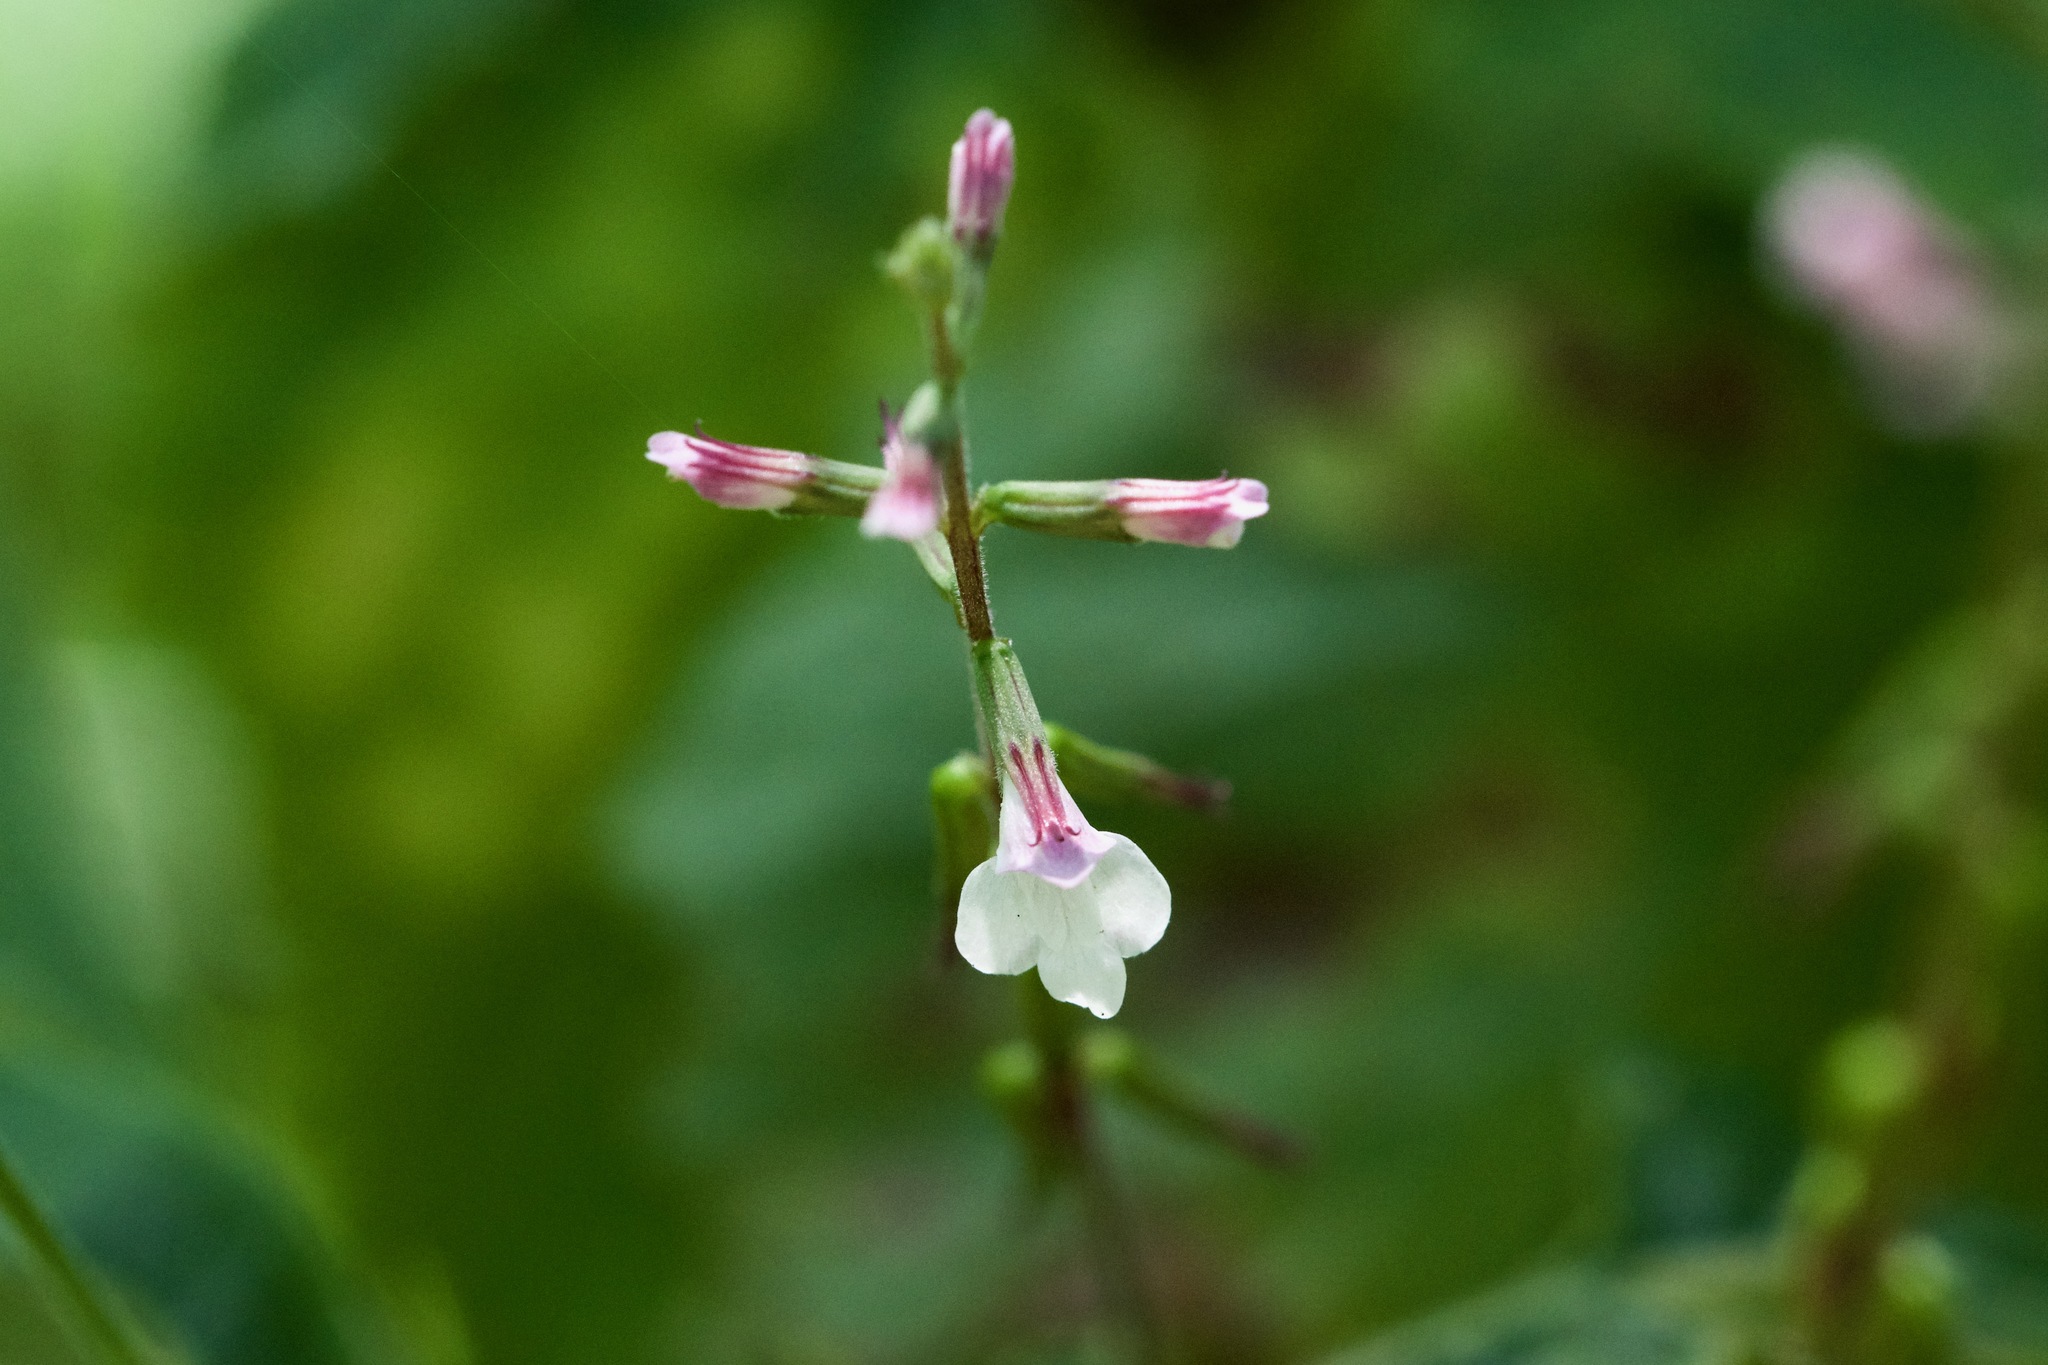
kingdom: Plantae
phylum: Tracheophyta
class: Magnoliopsida
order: Lamiales
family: Phrymaceae
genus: Phryma
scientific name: Phryma leptostachya
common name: American lopseed
